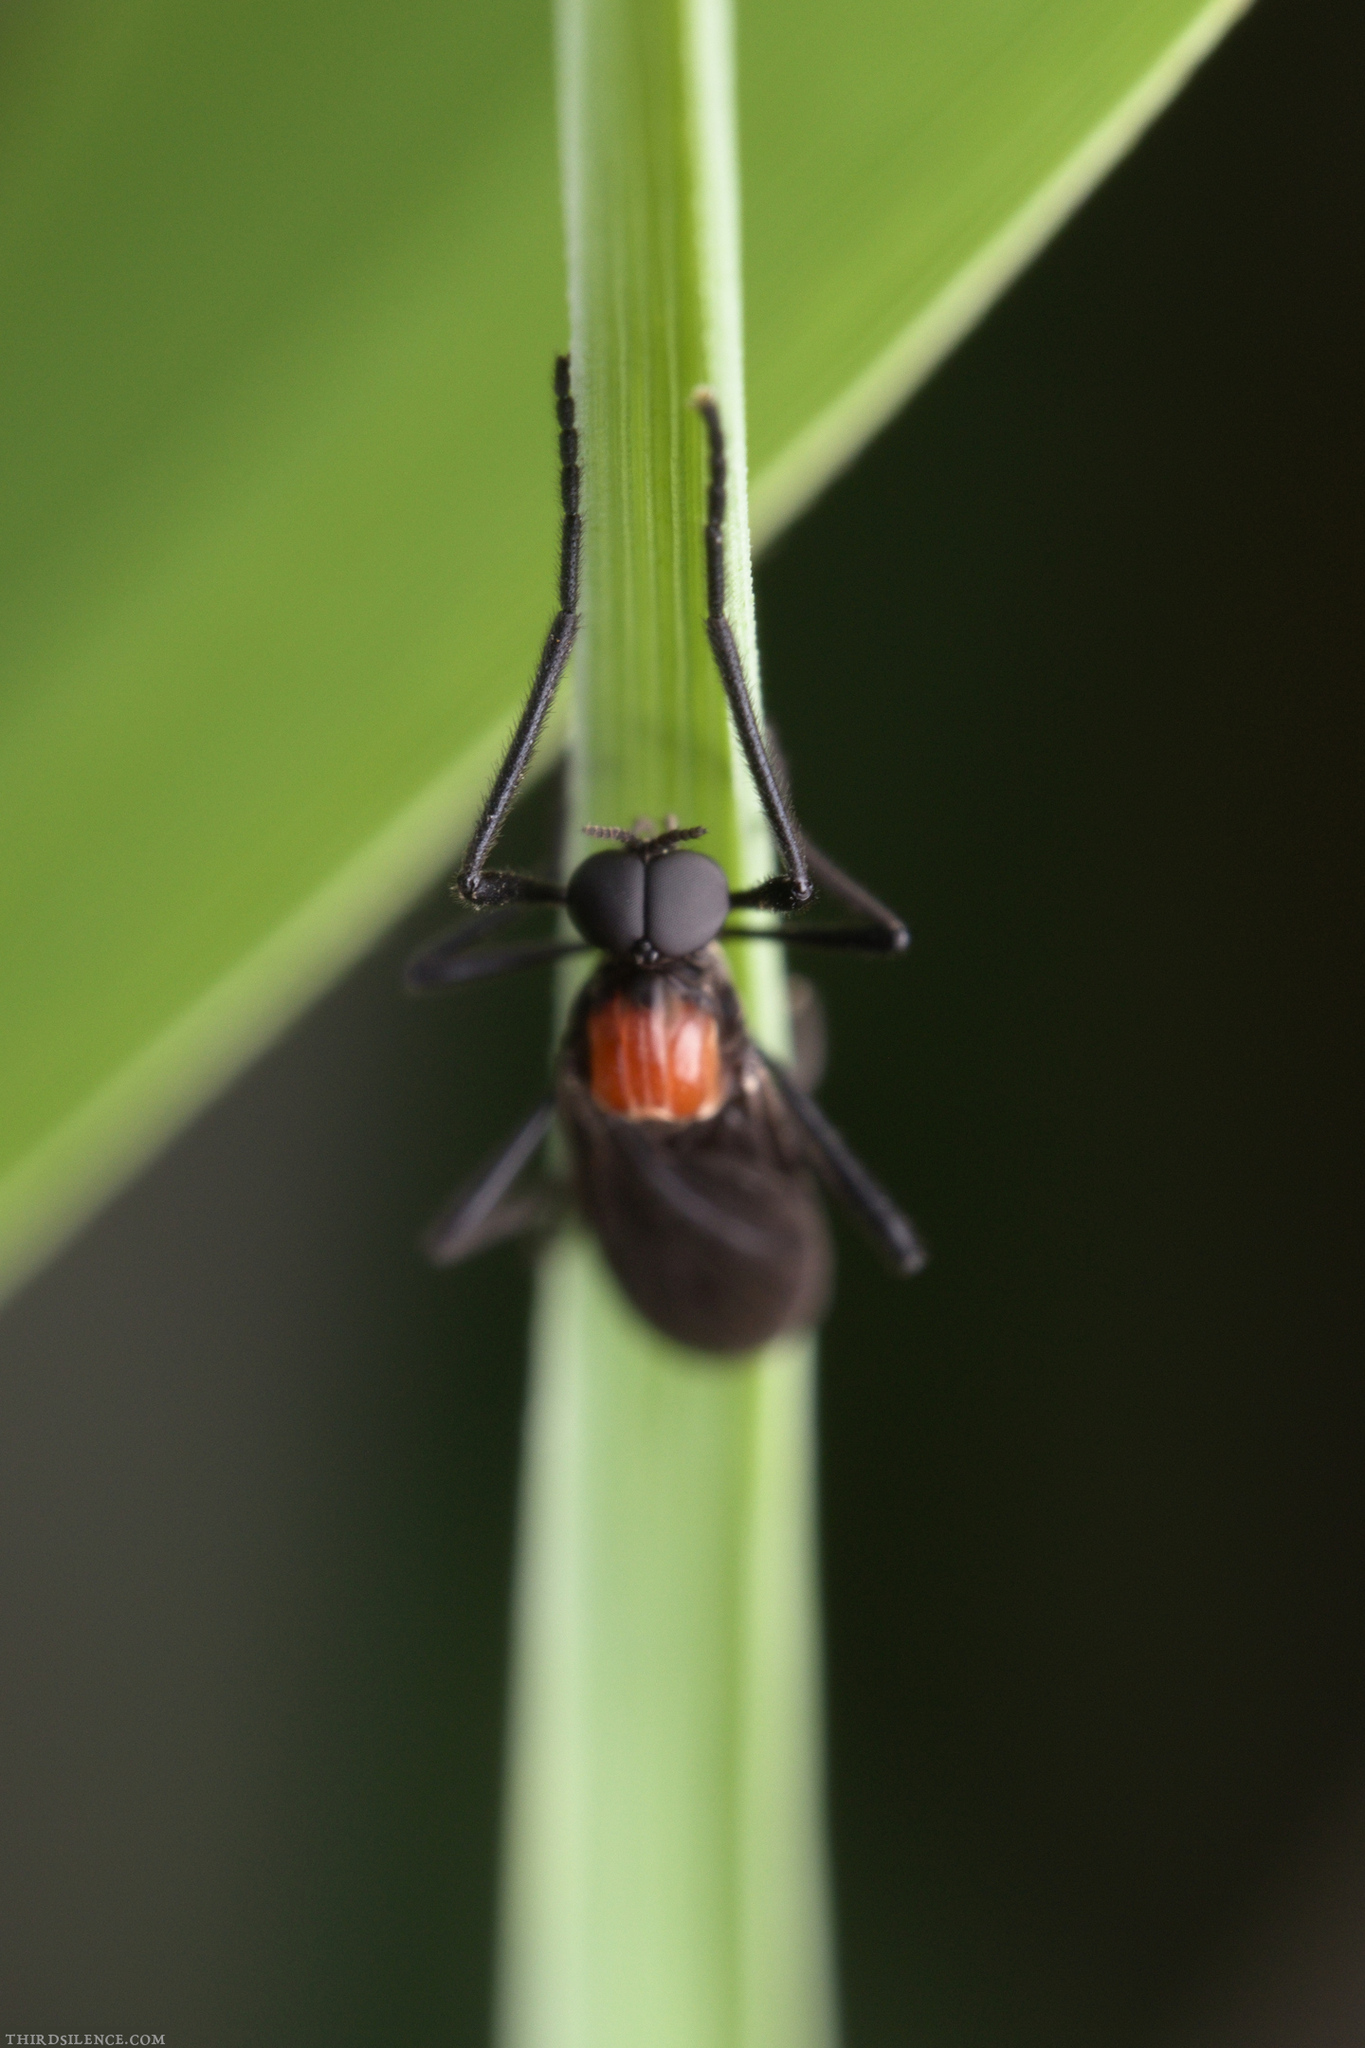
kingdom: Animalia
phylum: Arthropoda
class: Insecta
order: Diptera
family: Bibionidae
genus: Plecia
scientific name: Plecia dimidiata
